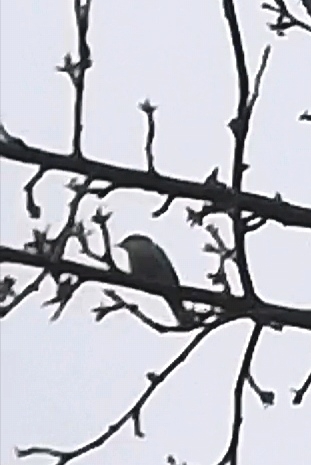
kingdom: Animalia
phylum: Chordata
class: Aves
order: Passeriformes
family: Sylviidae
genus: Sylvia
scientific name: Sylvia curruca
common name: Lesser whitethroat
